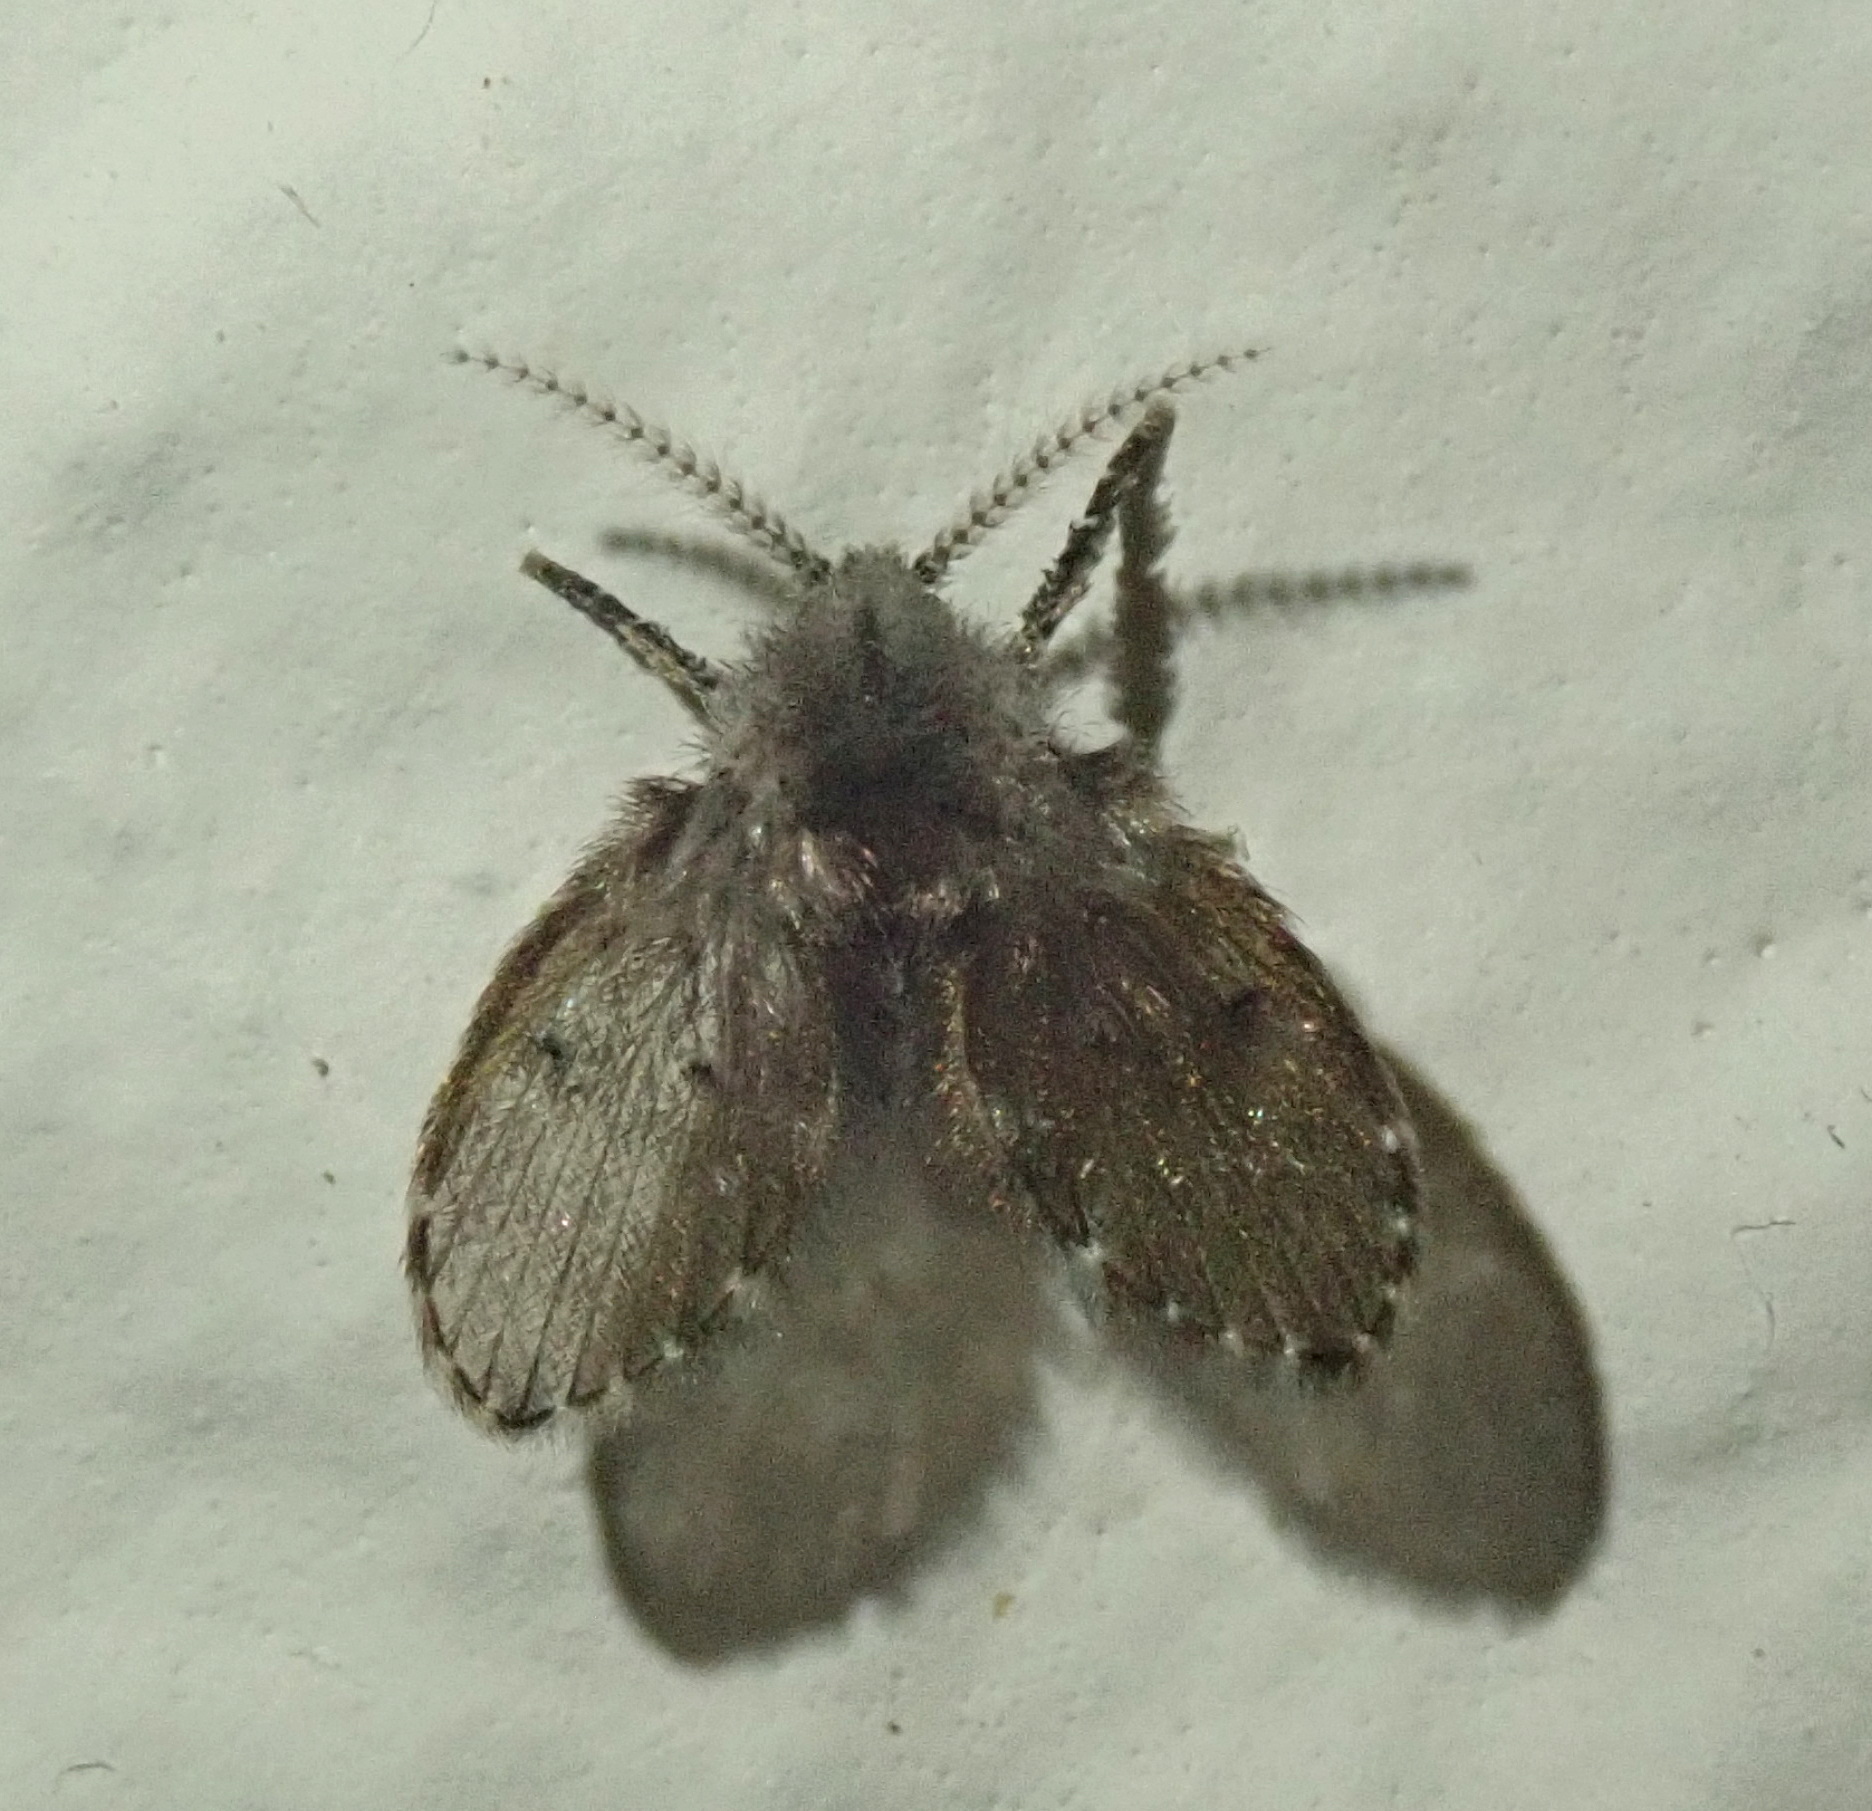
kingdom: Animalia
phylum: Arthropoda
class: Insecta
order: Diptera
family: Psychodidae
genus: Clogmia
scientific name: Clogmia albipunctatus
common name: White-spotted moth fly
